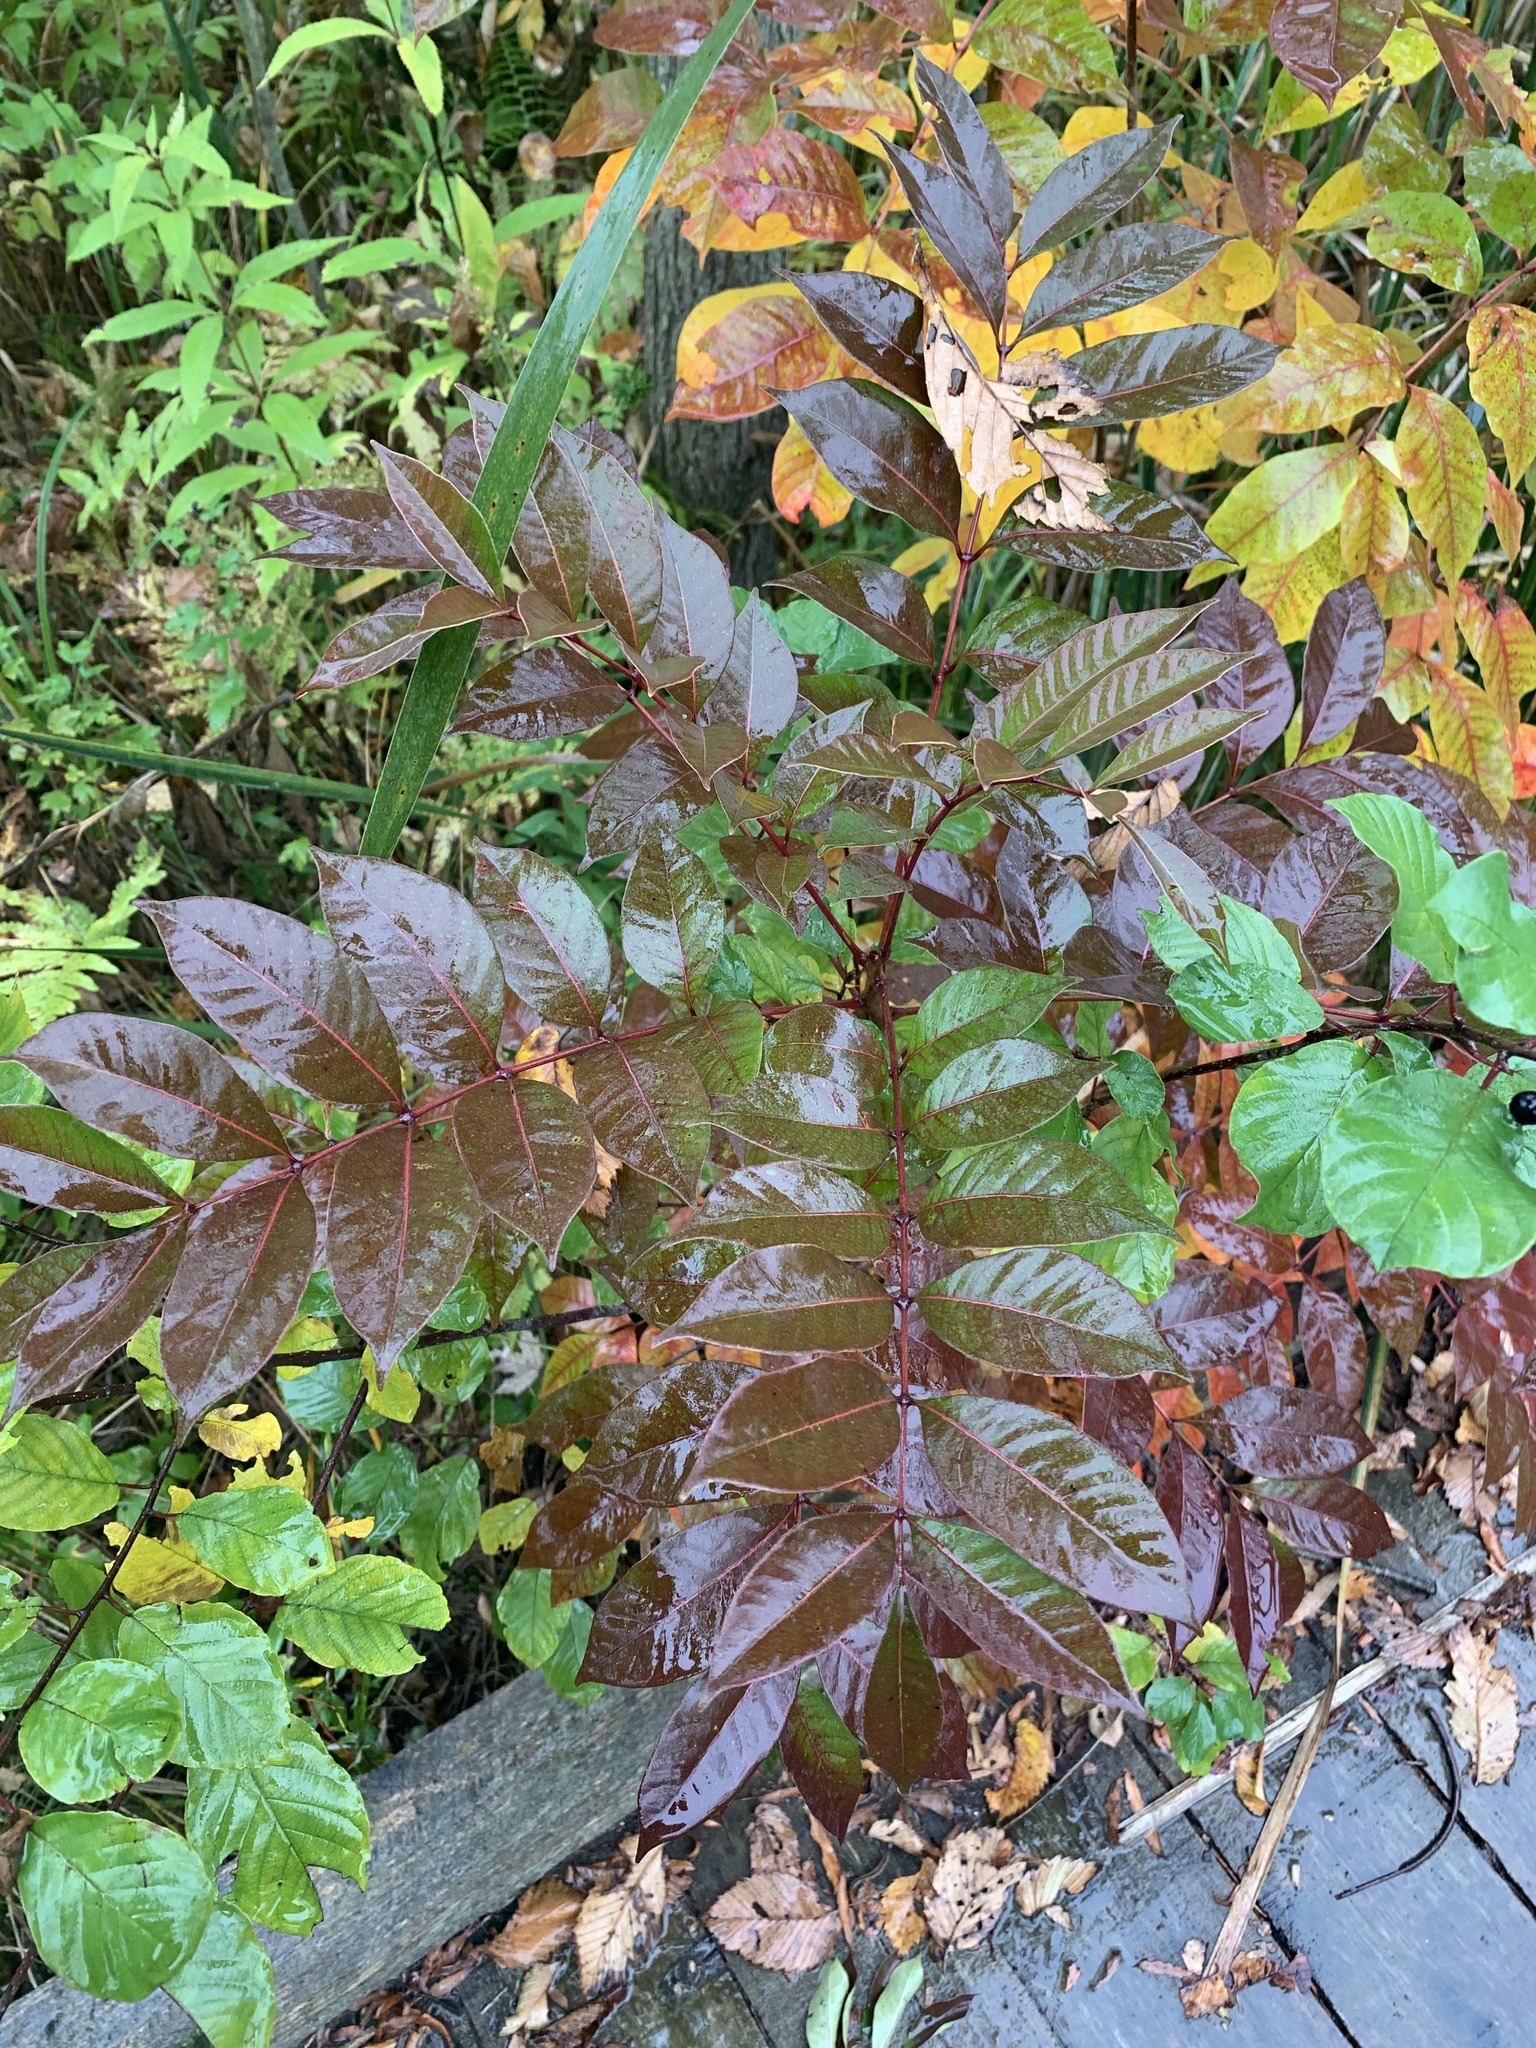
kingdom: Plantae
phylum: Tracheophyta
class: Magnoliopsida
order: Sapindales
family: Anacardiaceae
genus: Toxicodendron
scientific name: Toxicodendron vernix
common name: Poison sumac
